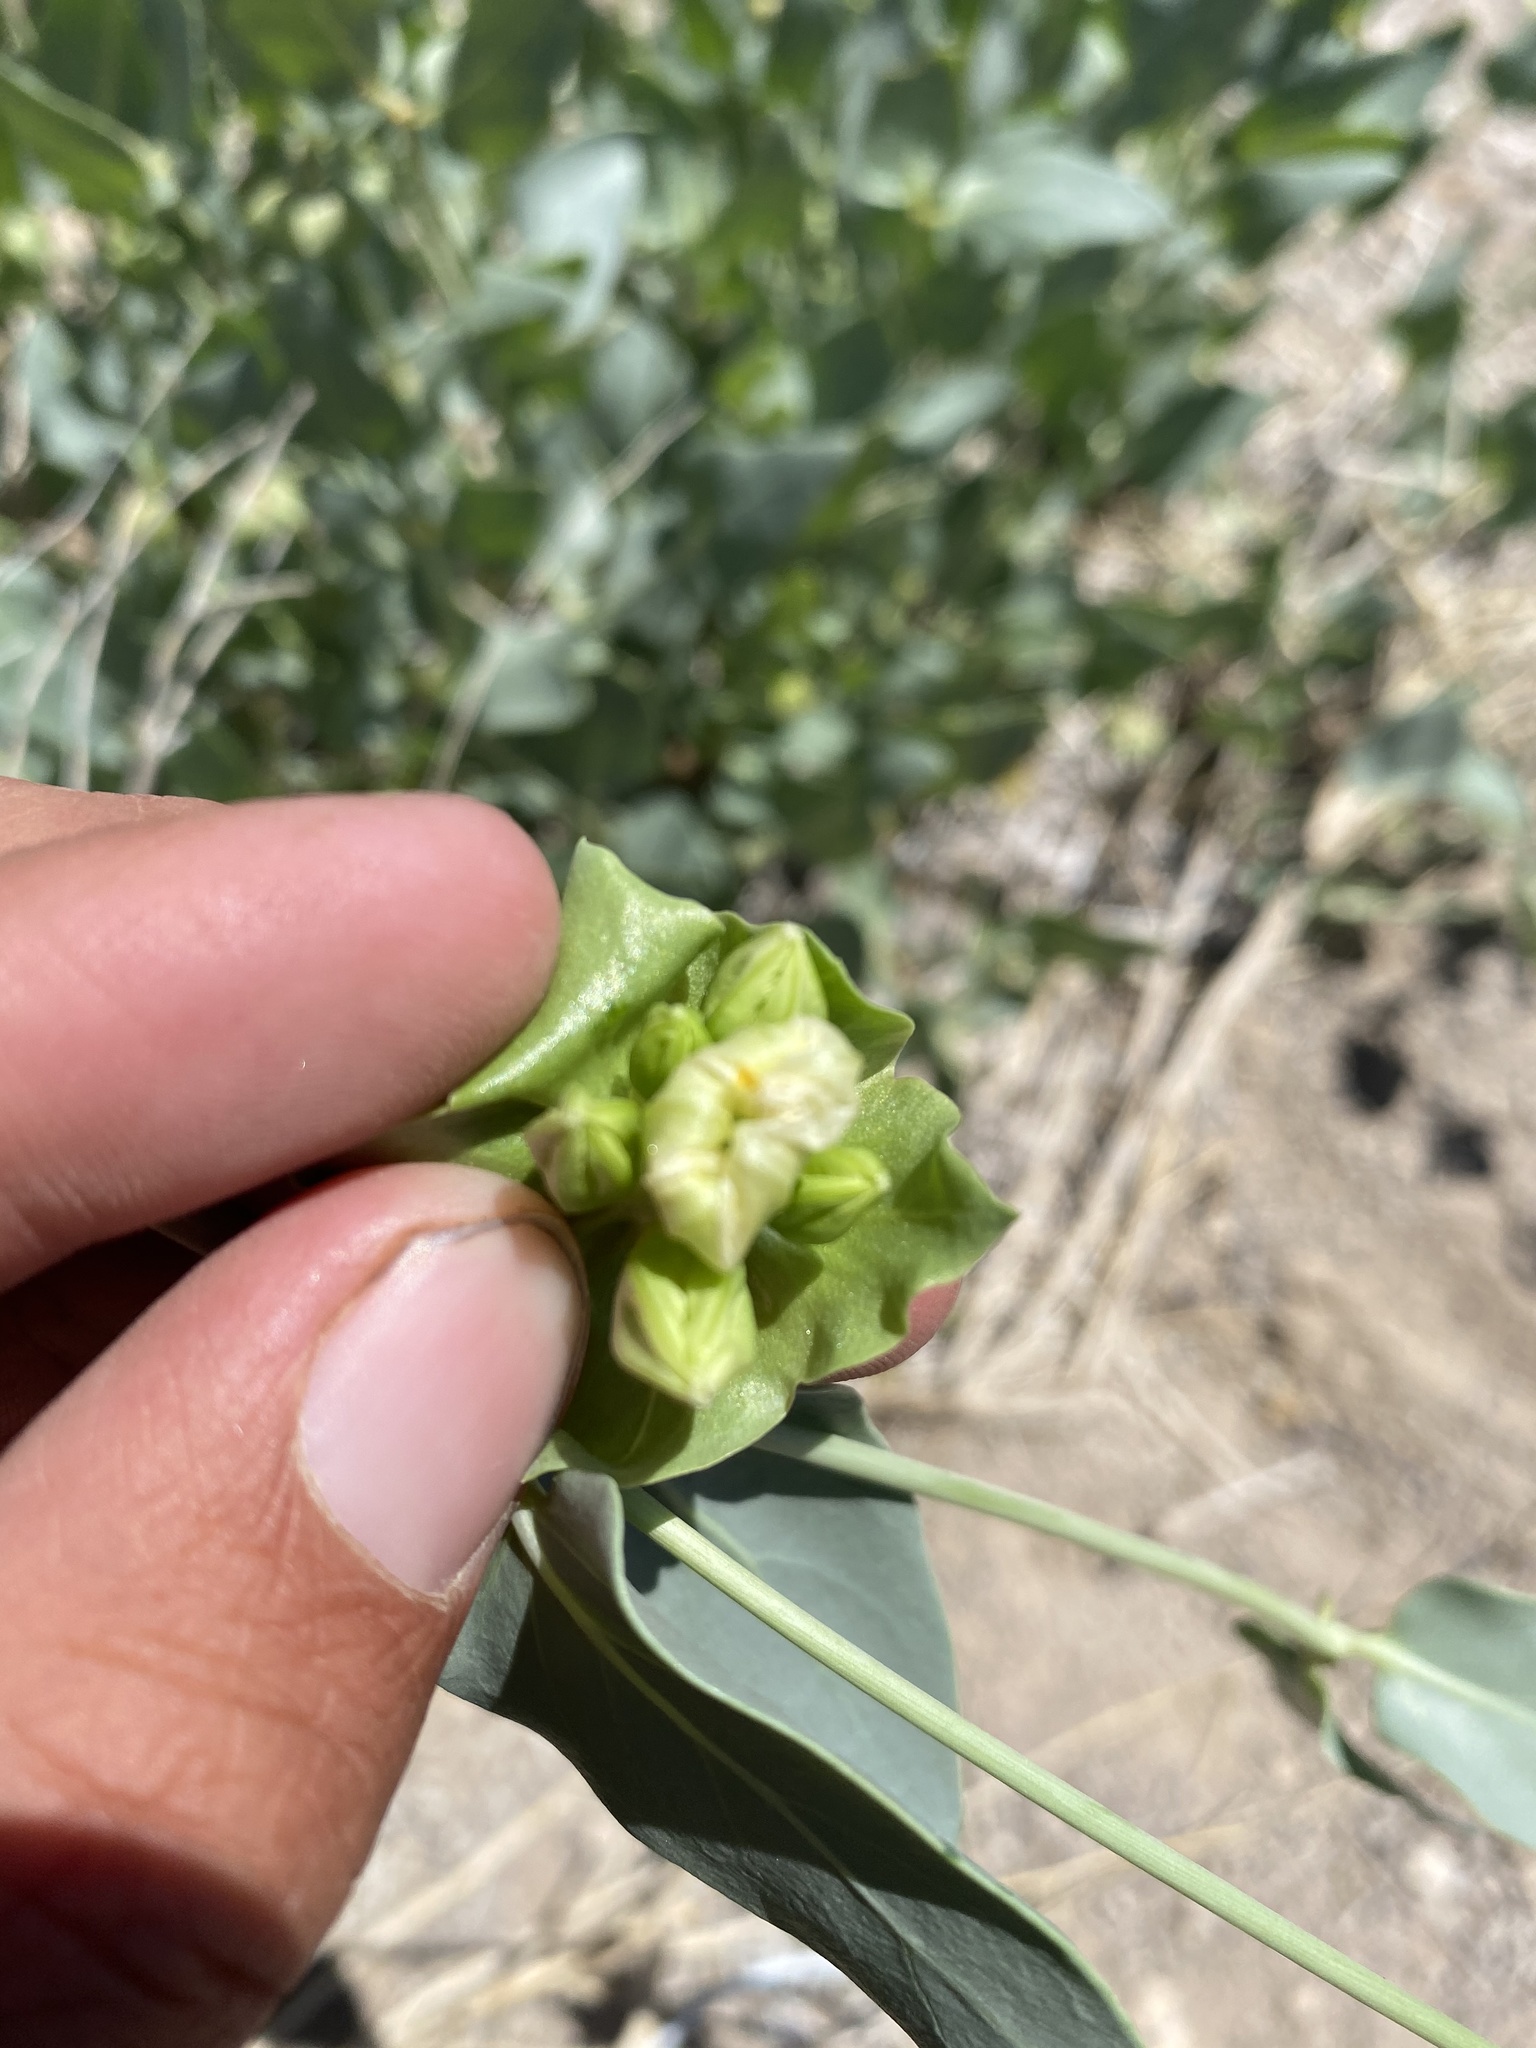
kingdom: Plantae
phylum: Tracheophyta
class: Magnoliopsida
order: Caryophyllales
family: Nyctaginaceae
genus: Mirabilis
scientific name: Mirabilis pudica
